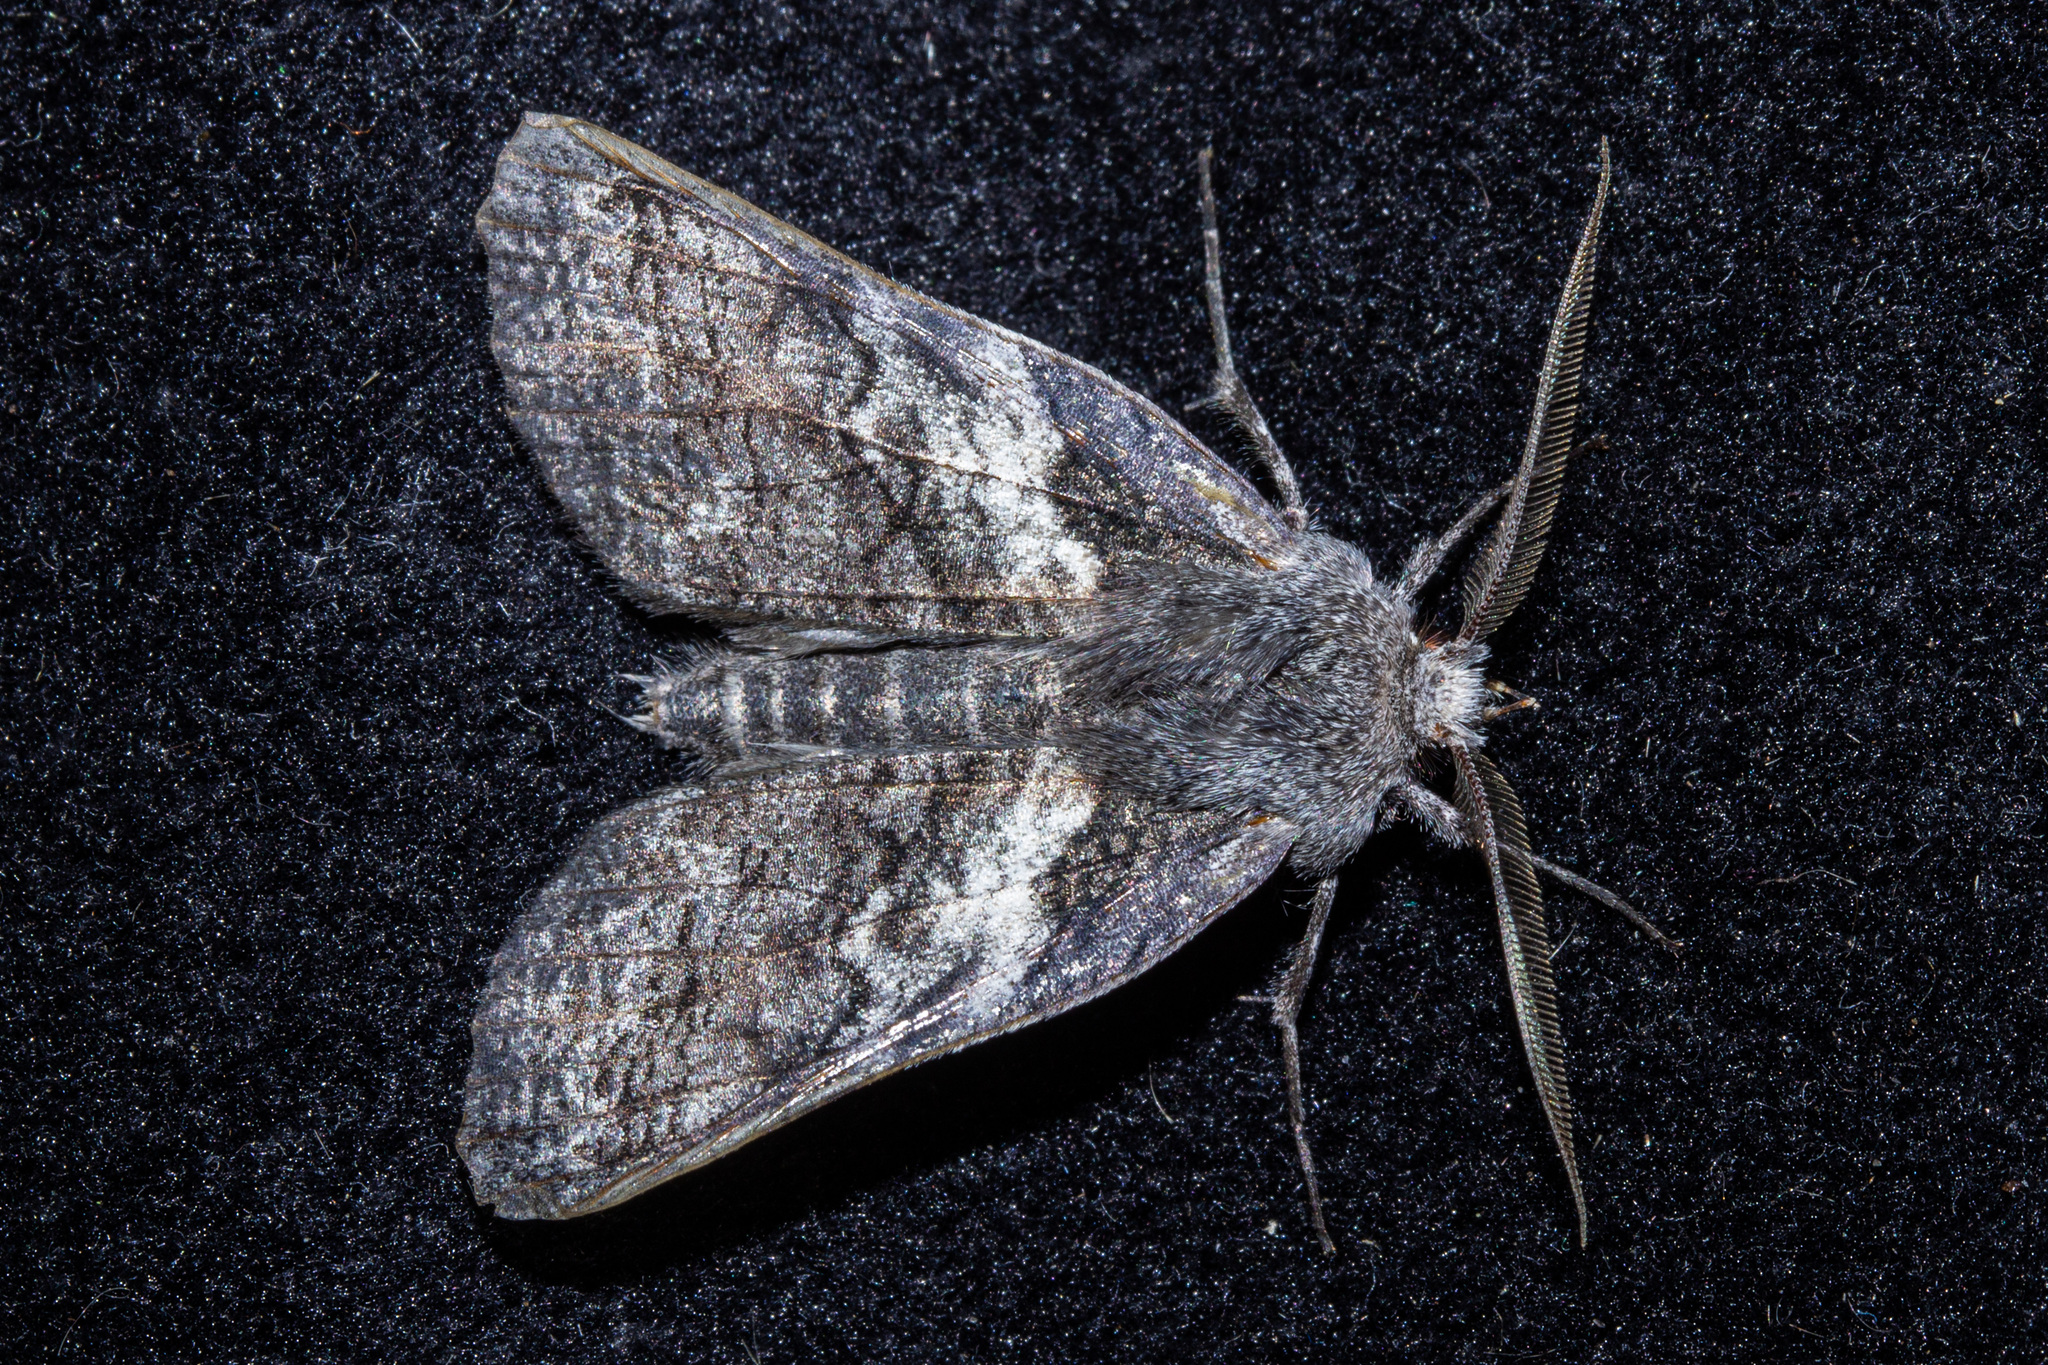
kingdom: Animalia
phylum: Arthropoda
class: Insecta
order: Lepidoptera
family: Geometridae
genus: Declana
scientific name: Declana
